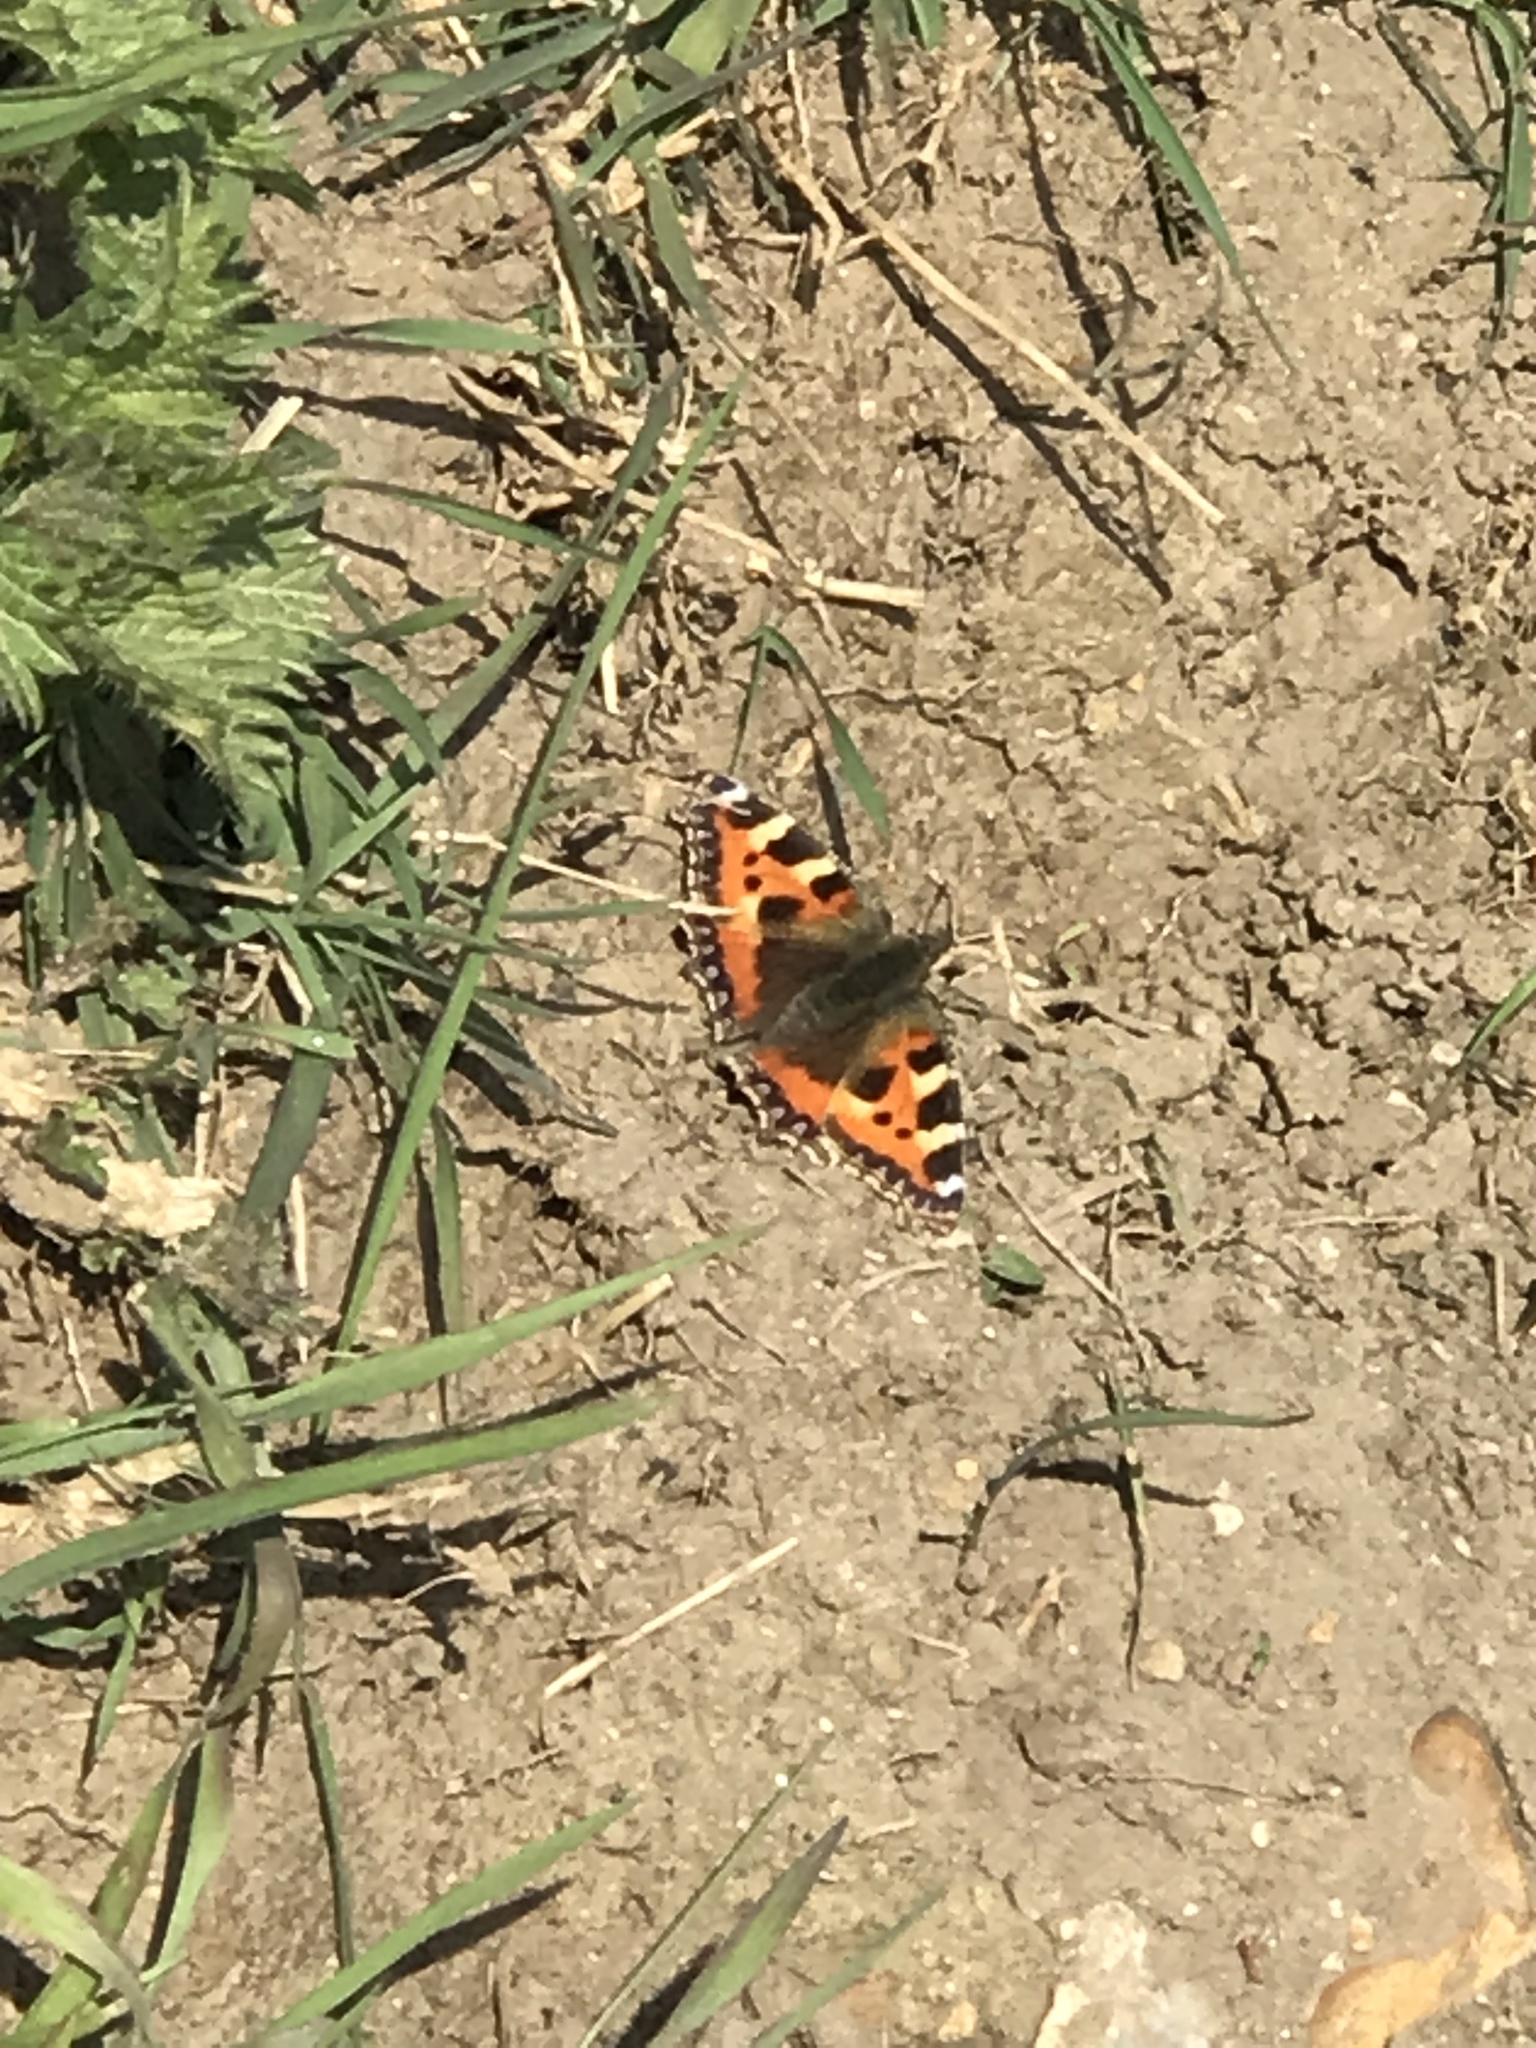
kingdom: Animalia
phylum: Arthropoda
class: Insecta
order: Lepidoptera
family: Nymphalidae
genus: Aglais
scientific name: Aglais urticae
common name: Small tortoiseshell
